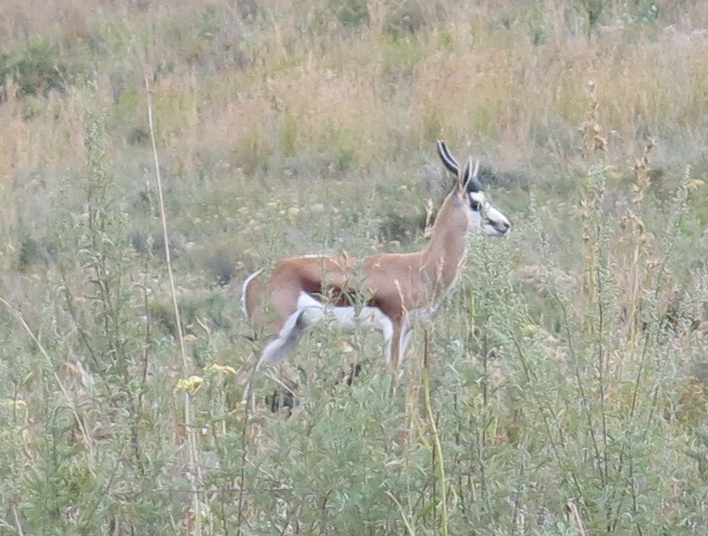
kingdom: Animalia
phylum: Chordata
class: Mammalia
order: Artiodactyla
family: Bovidae
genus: Antidorcas
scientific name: Antidorcas marsupialis
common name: Springbok
